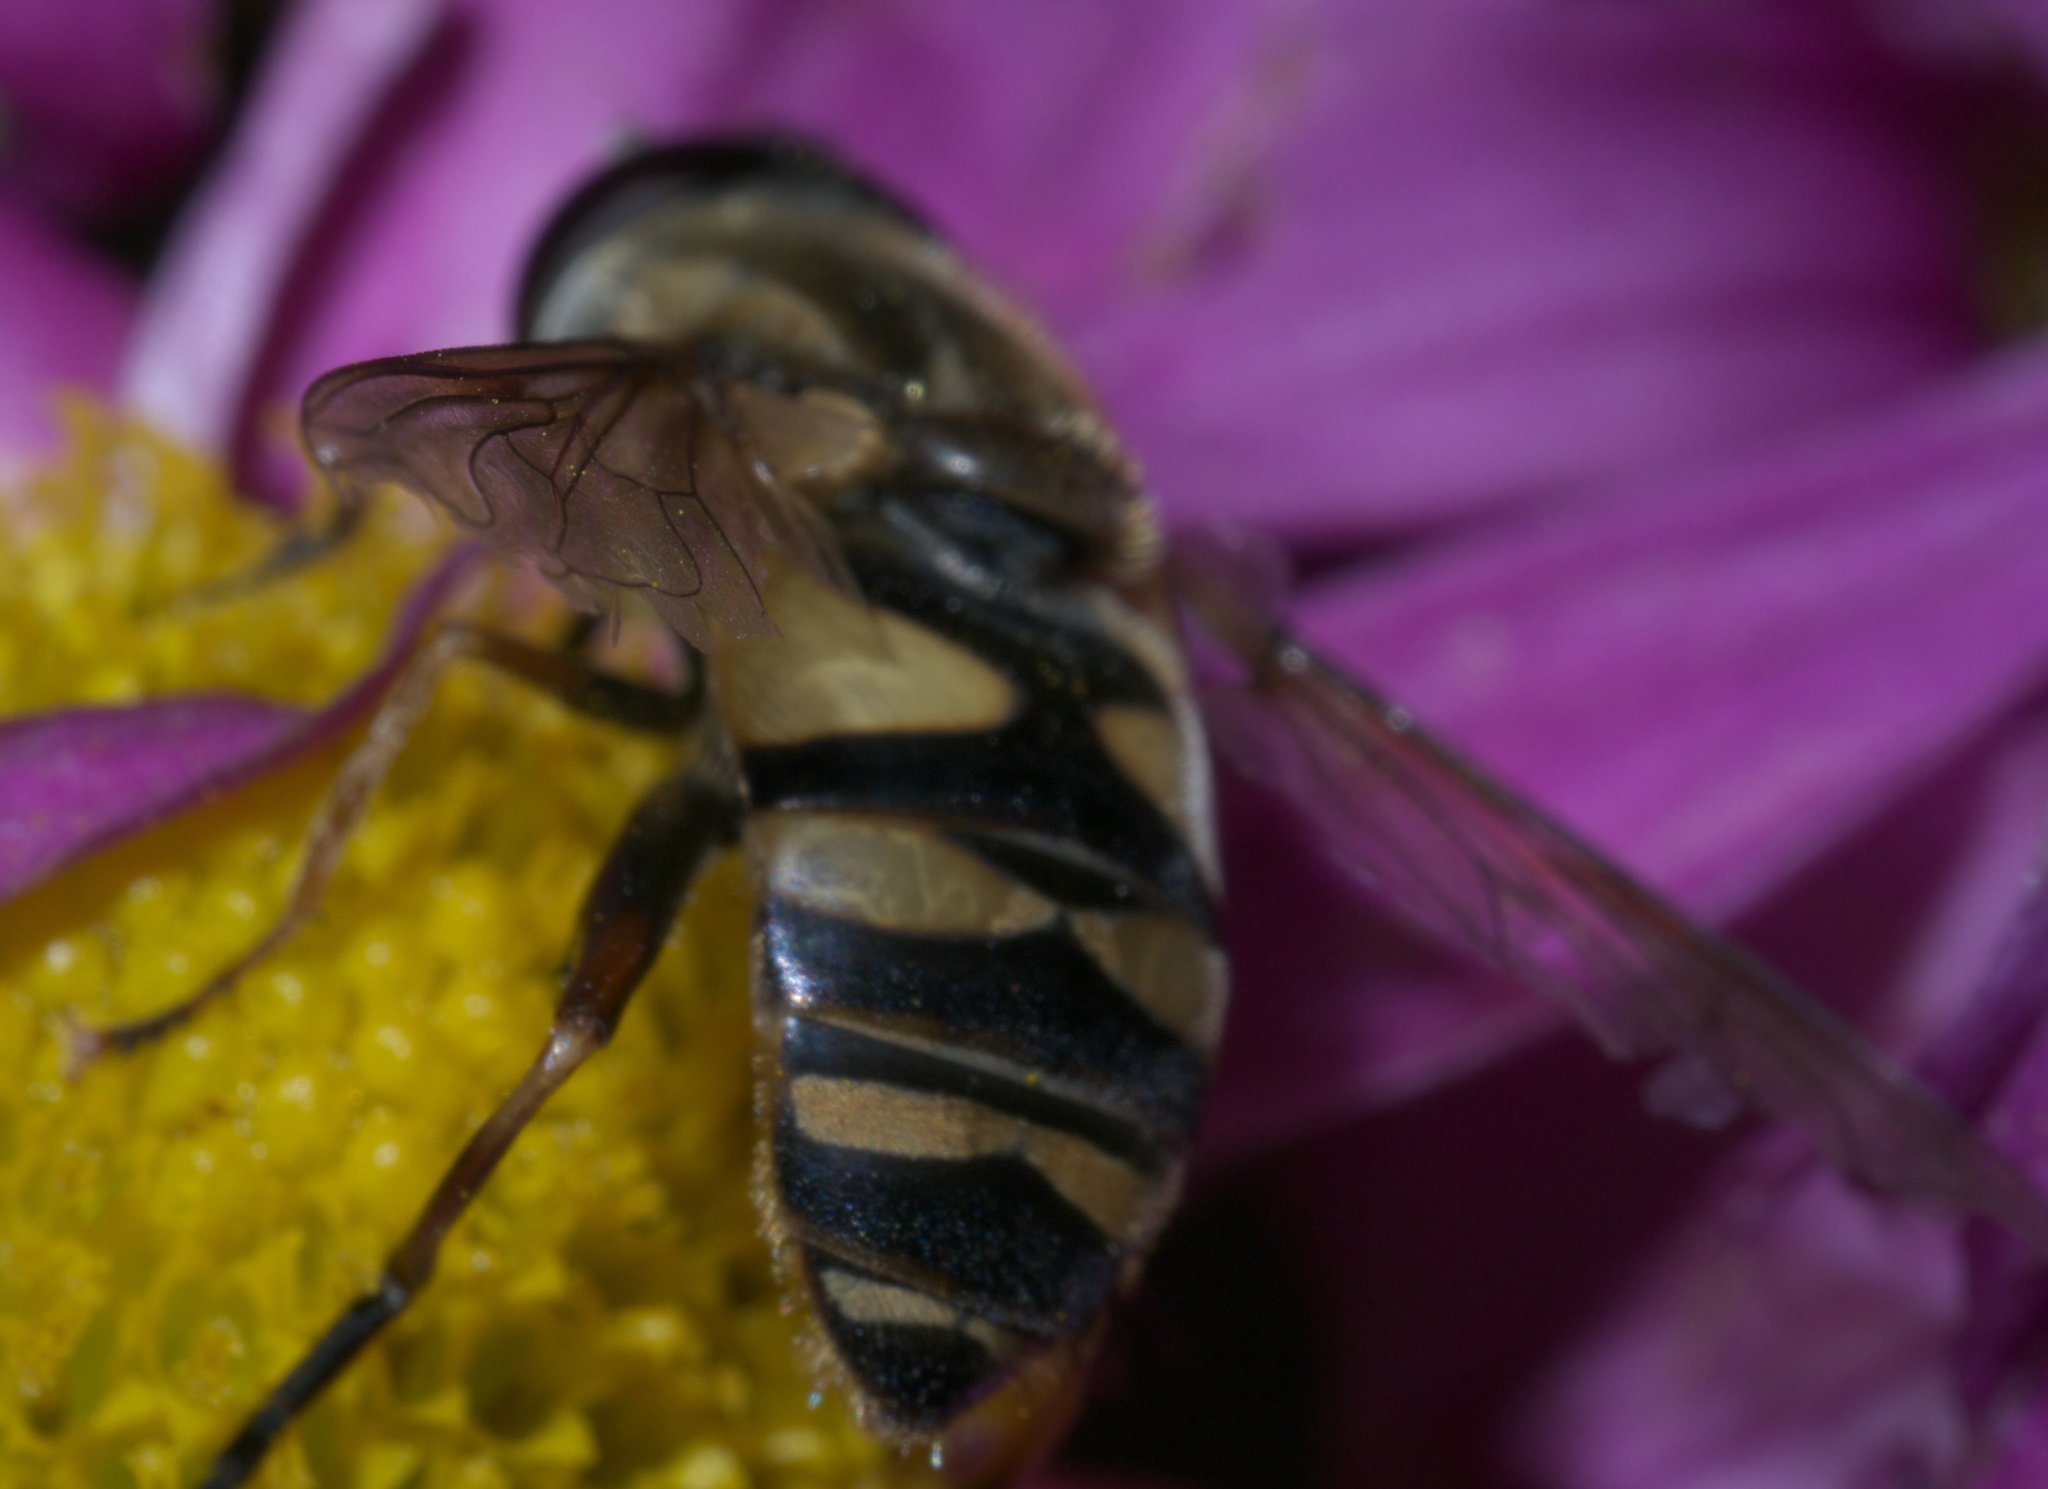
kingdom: Animalia
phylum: Arthropoda
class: Insecta
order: Diptera
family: Syrphidae
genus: Helophilus
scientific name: Helophilus fasciatus
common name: Narrow-headed marsh fly
